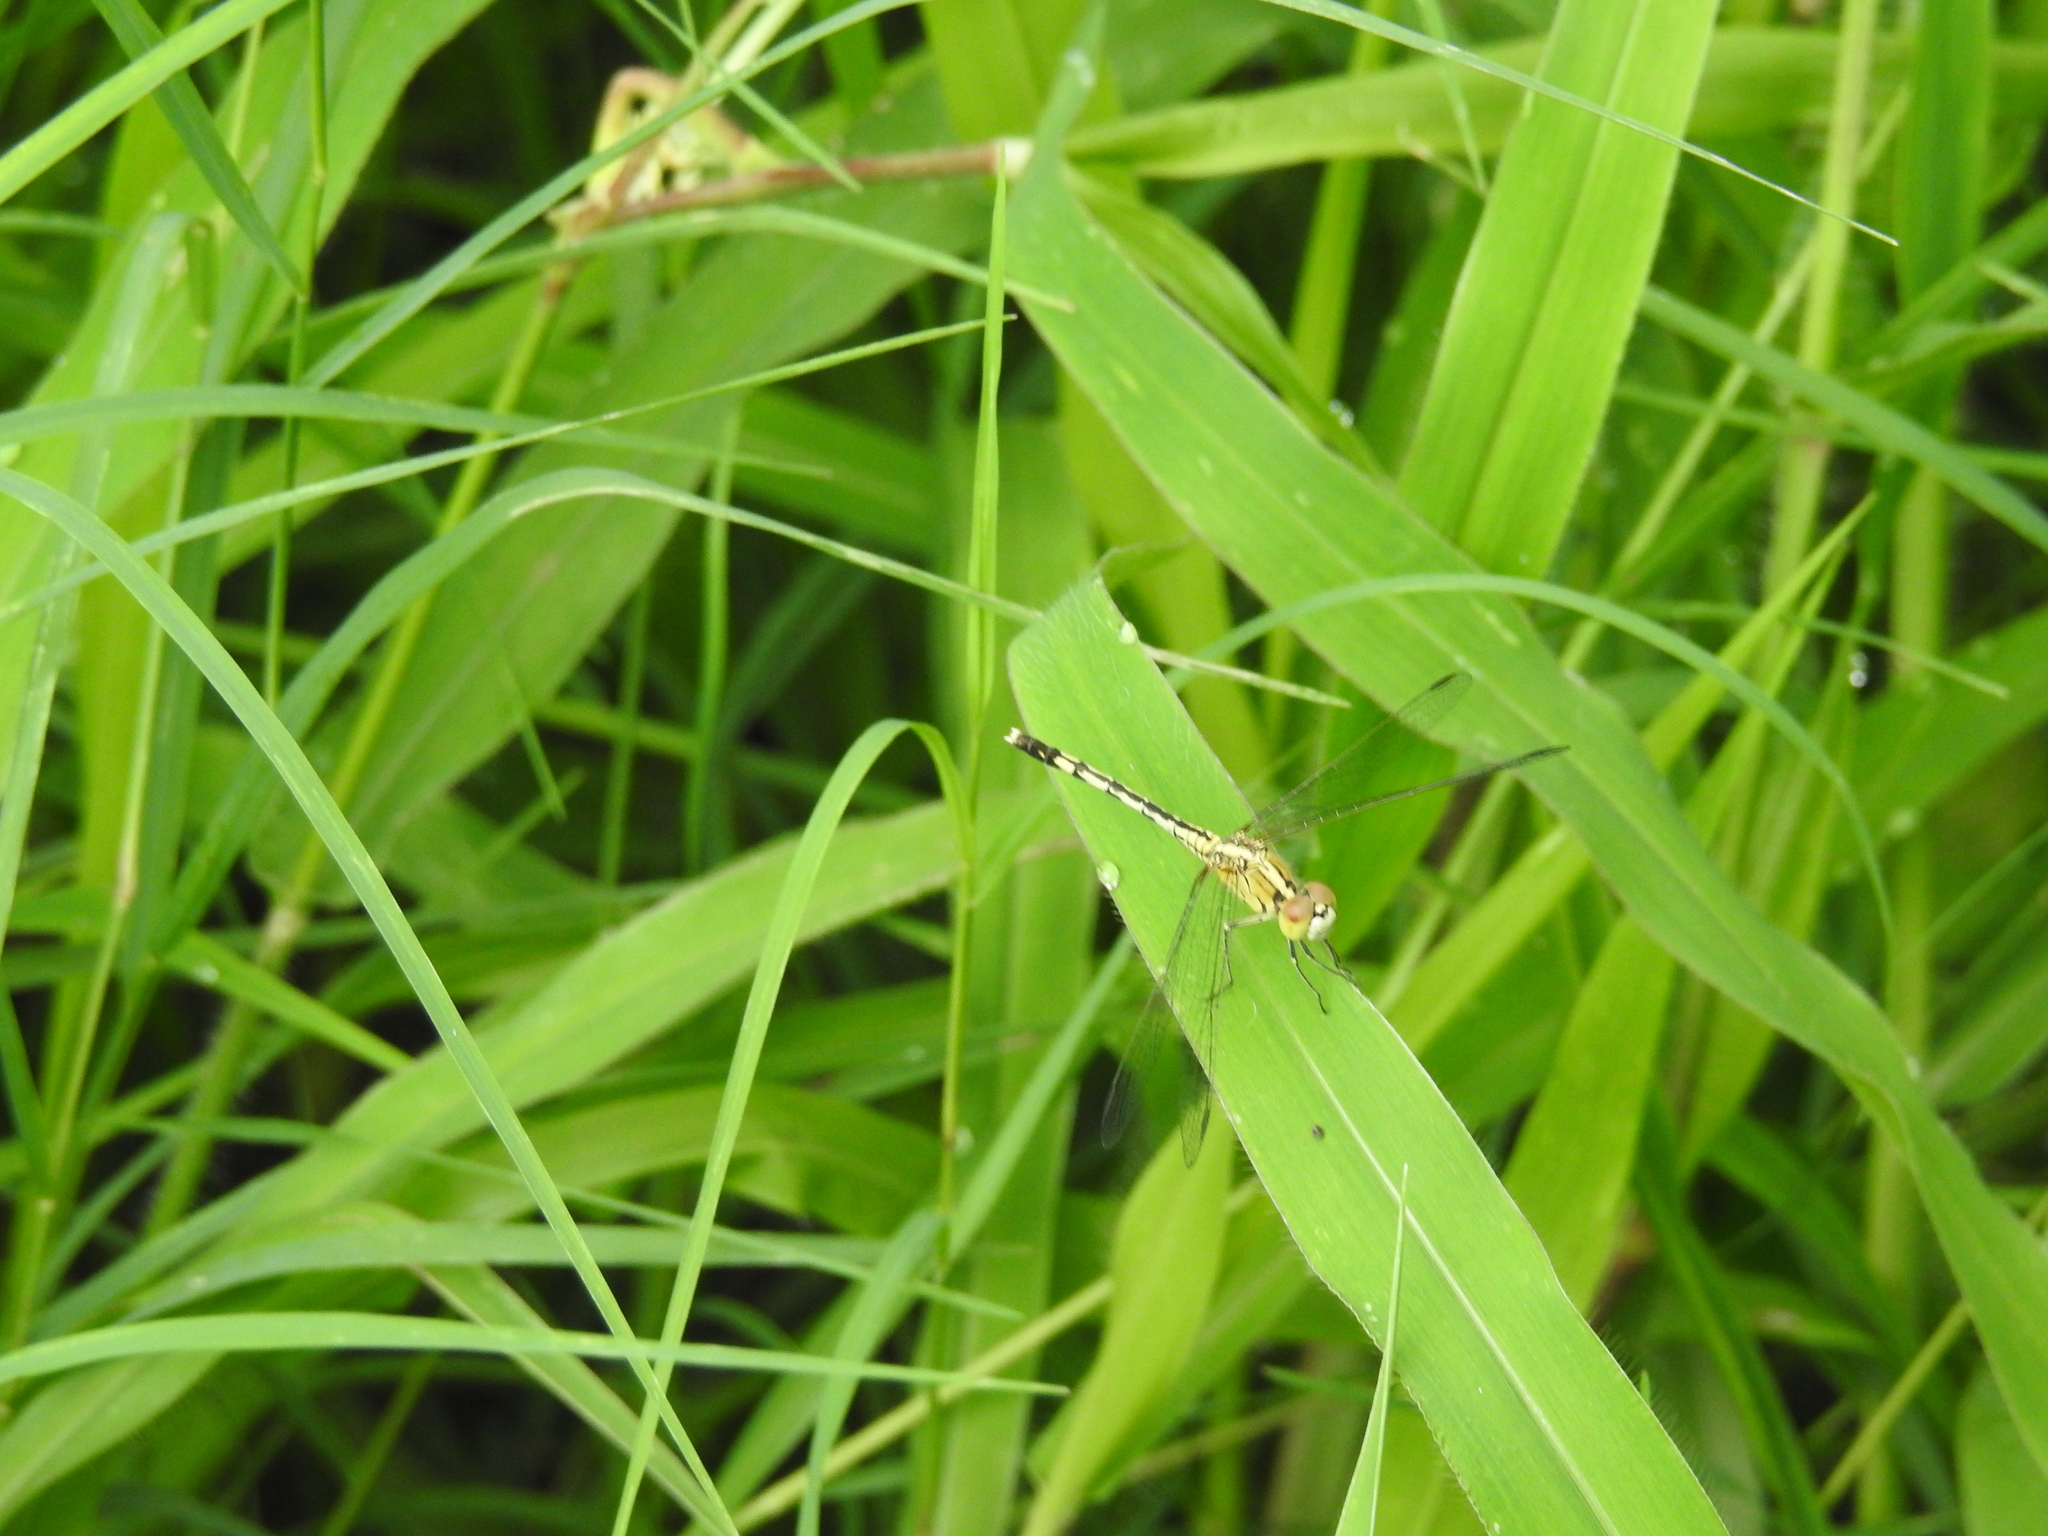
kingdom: Animalia
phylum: Arthropoda
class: Insecta
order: Odonata
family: Libellulidae
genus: Diplacodes
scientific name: Diplacodes trivialis
